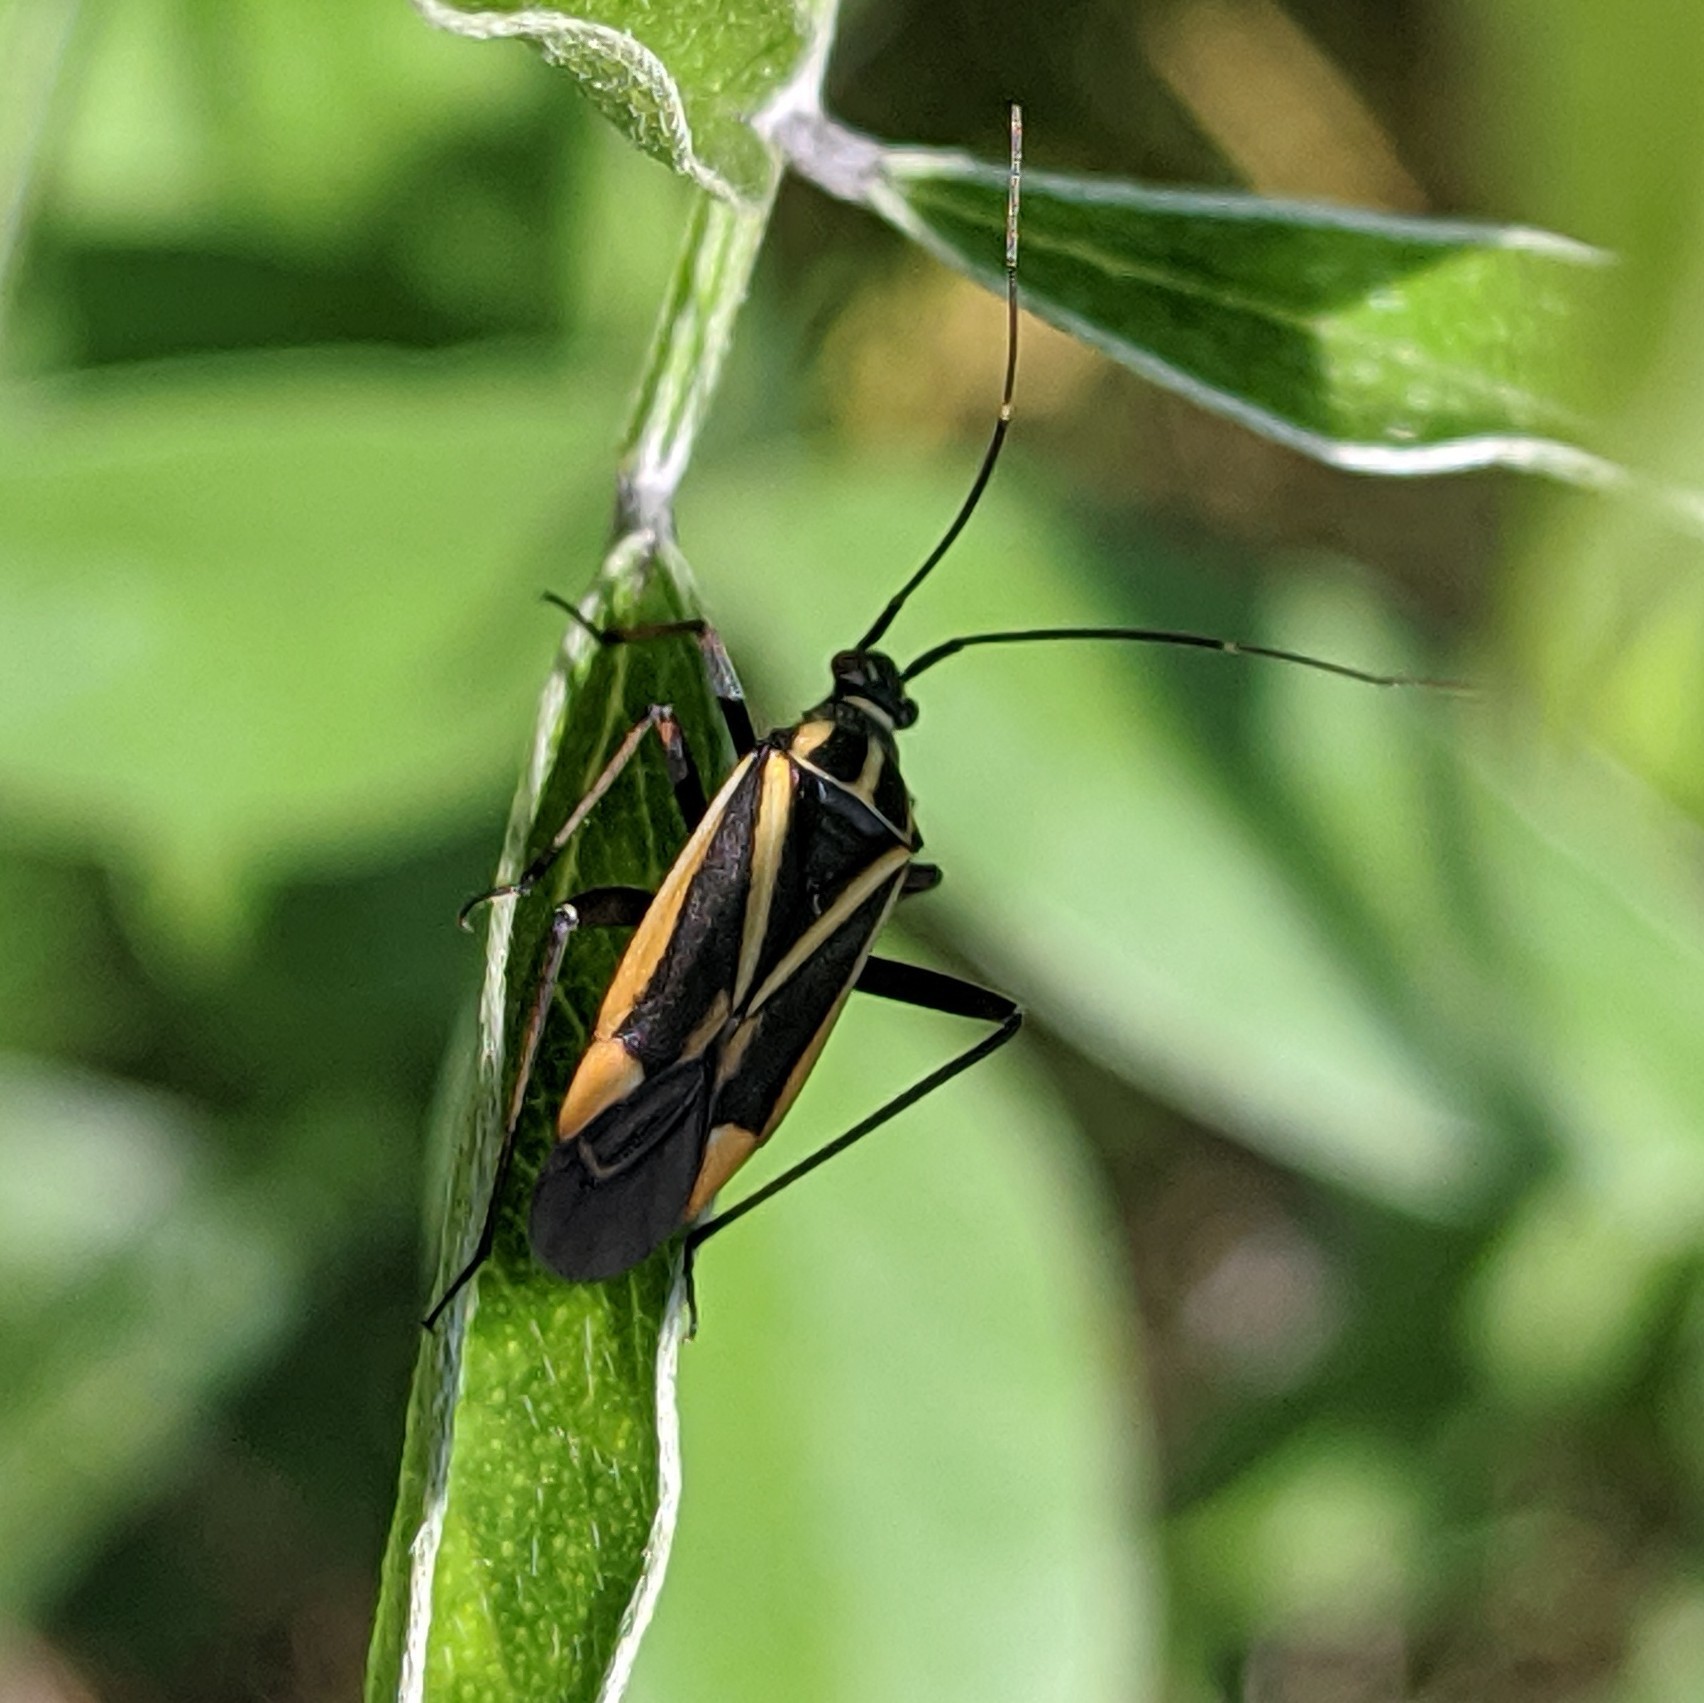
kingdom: Animalia
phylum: Arthropoda
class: Insecta
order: Hemiptera
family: Miridae
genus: Hadrodemus
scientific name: Hadrodemus m-flavum
